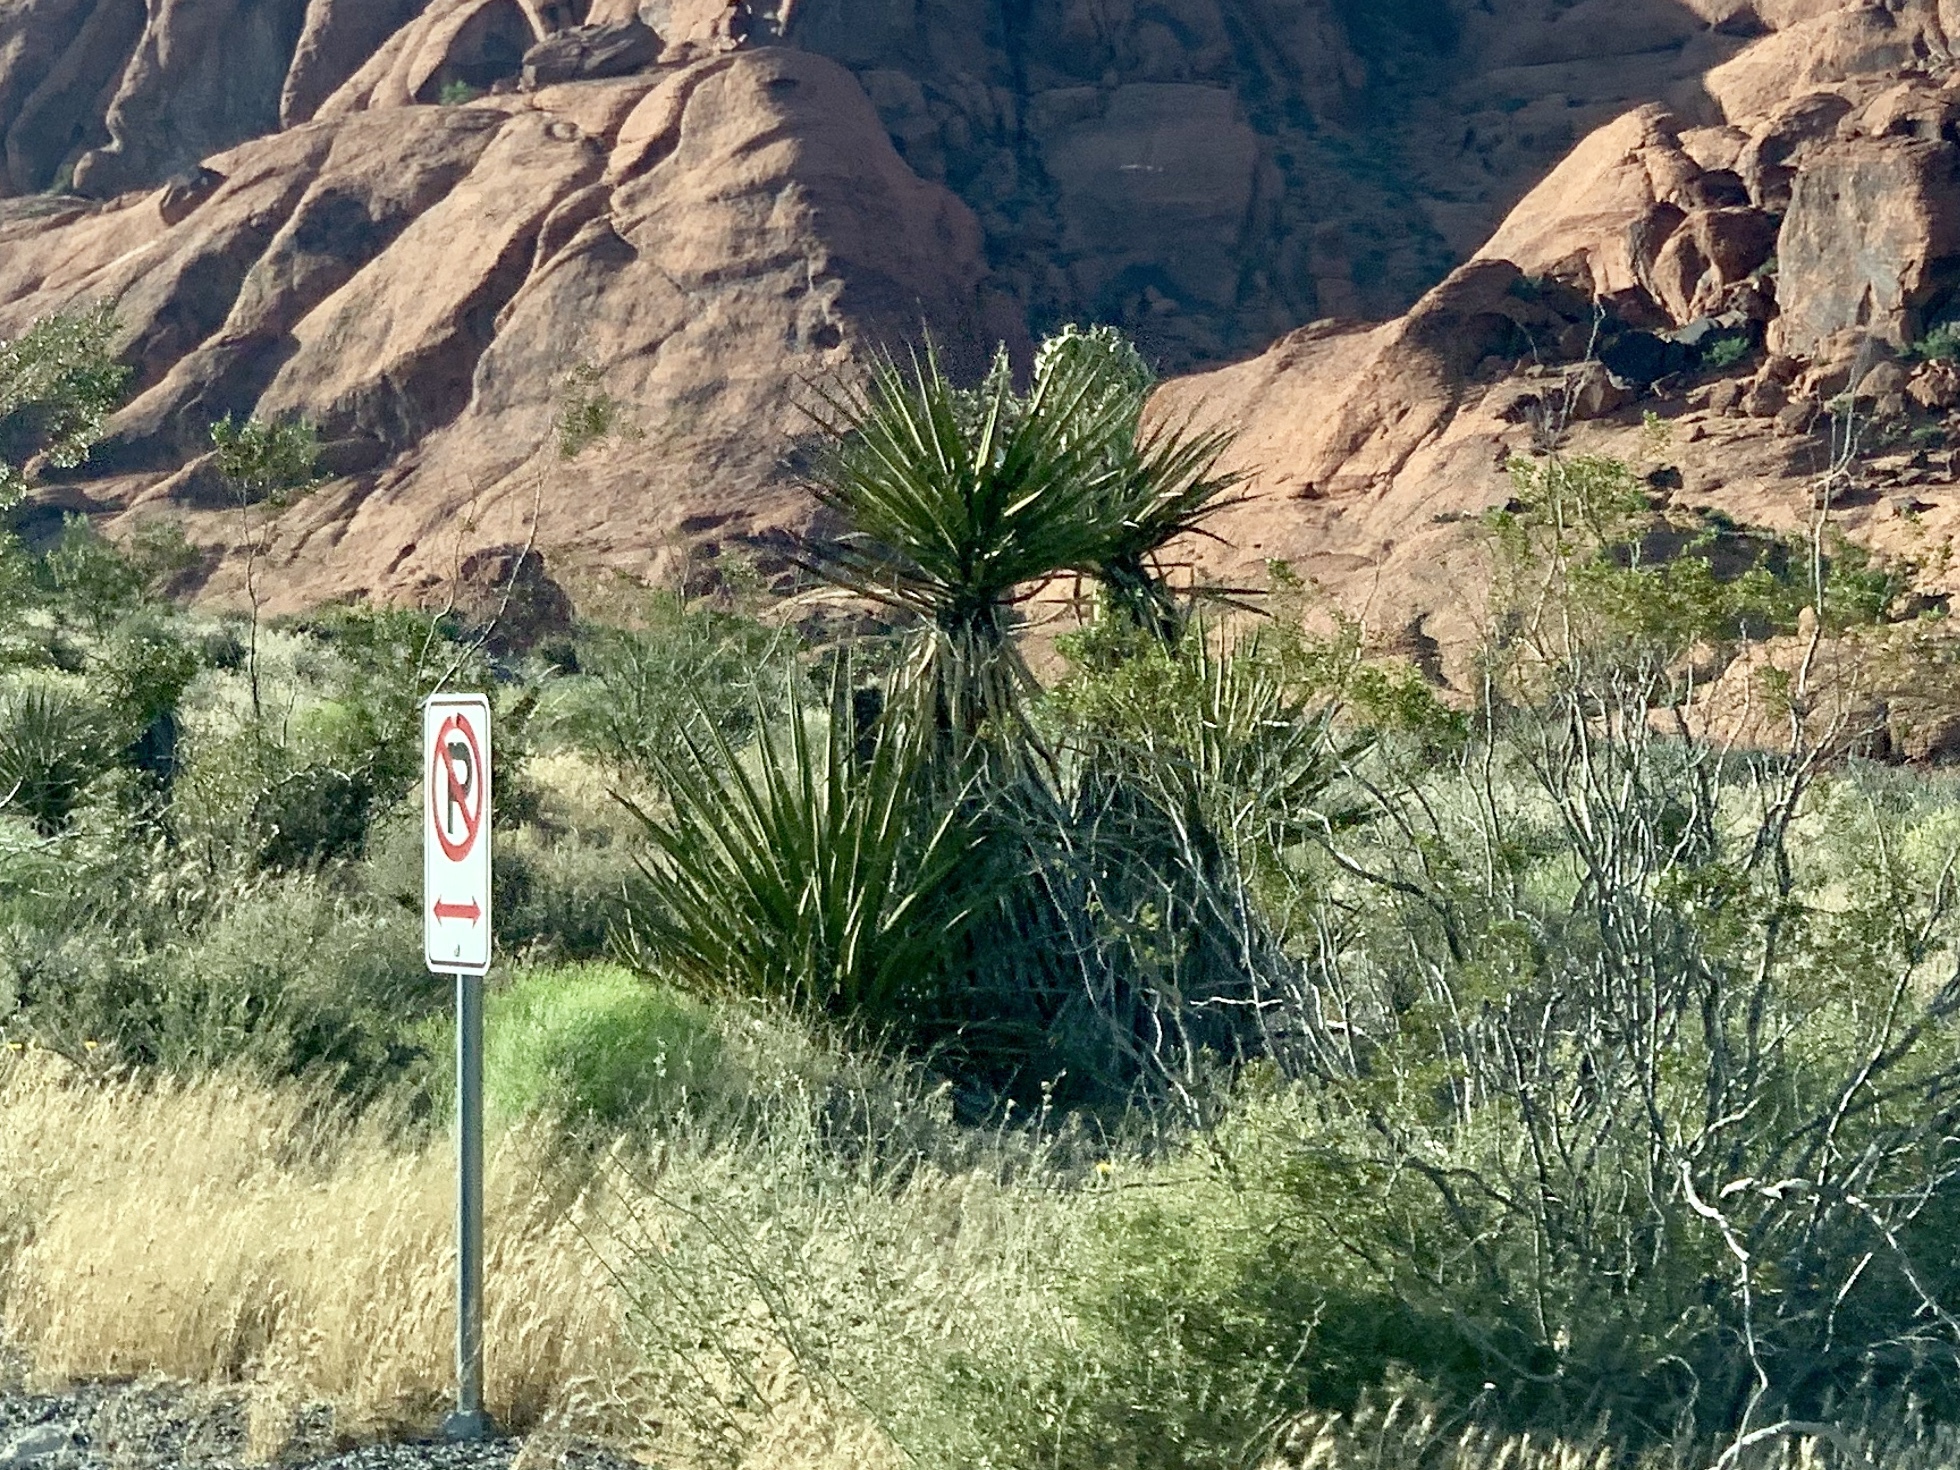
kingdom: Plantae
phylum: Tracheophyta
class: Liliopsida
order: Asparagales
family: Asparagaceae
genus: Yucca
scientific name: Yucca schidigera
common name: Mojave yucca
